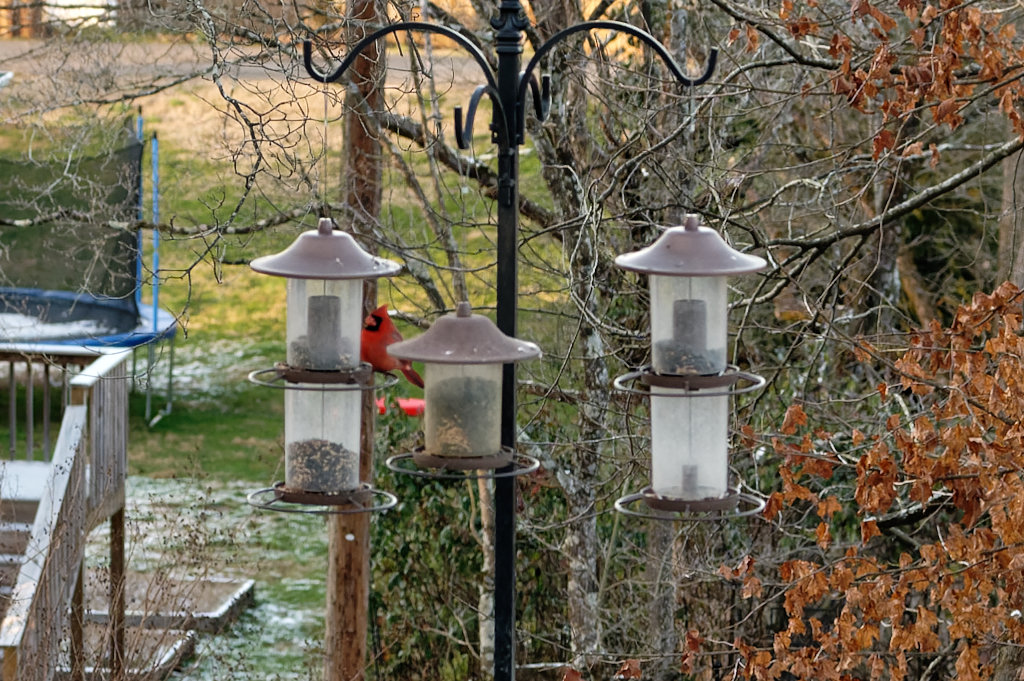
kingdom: Animalia
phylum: Chordata
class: Aves
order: Passeriformes
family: Cardinalidae
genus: Cardinalis
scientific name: Cardinalis cardinalis
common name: Northern cardinal
